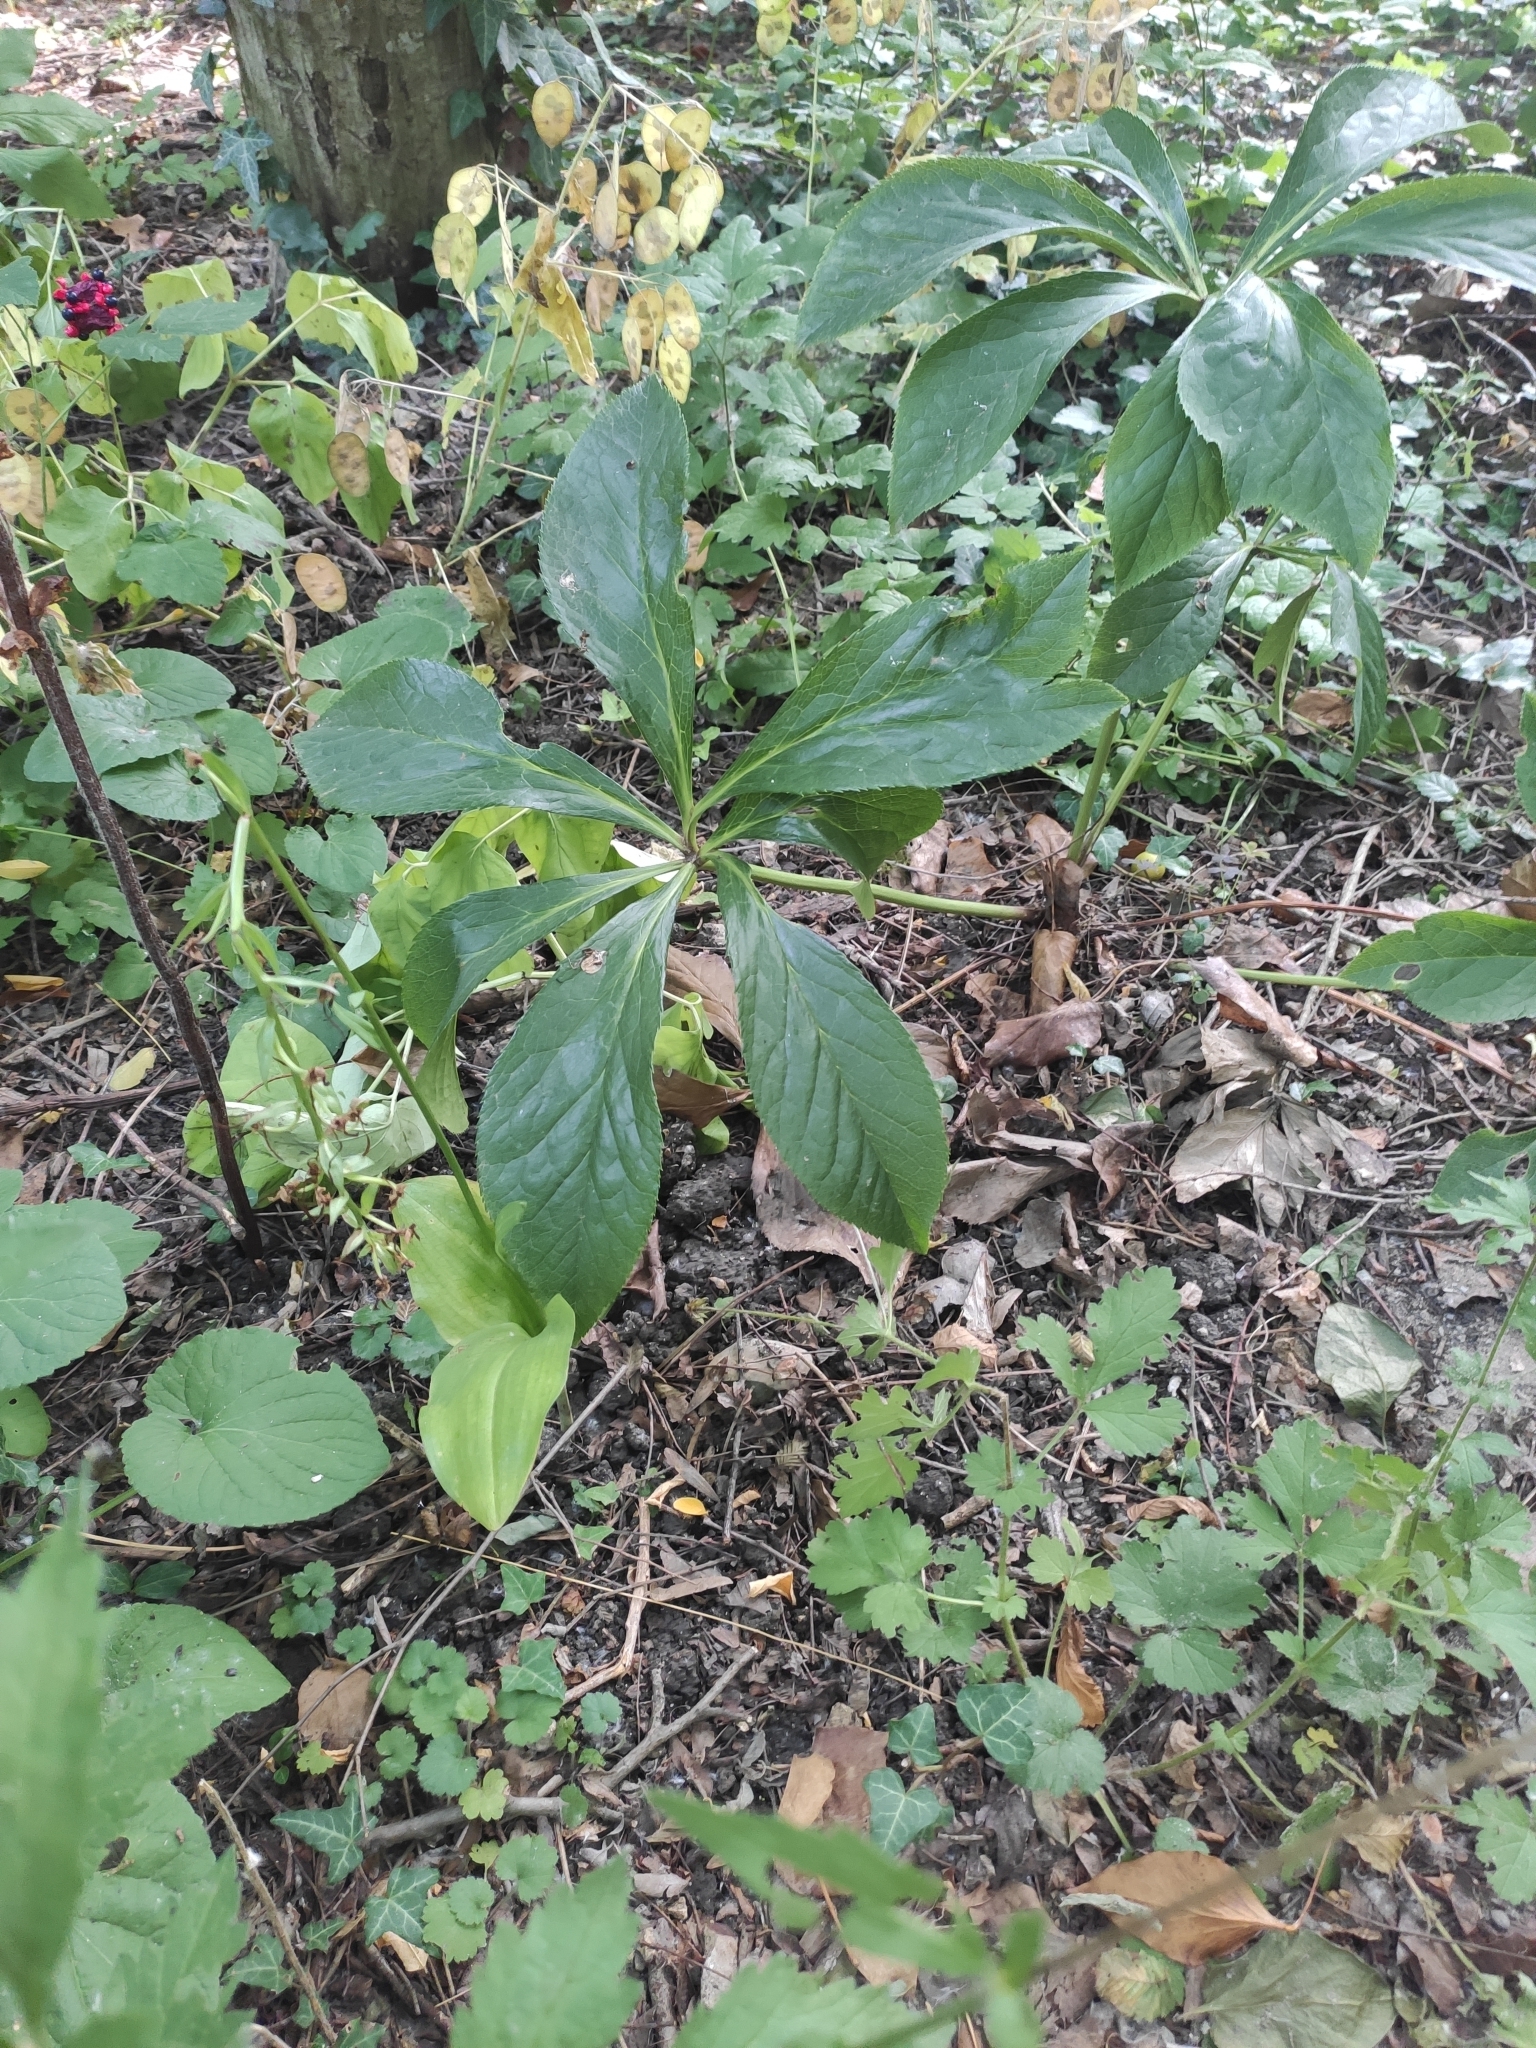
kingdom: Plantae
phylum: Tracheophyta
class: Magnoliopsida
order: Ranunculales
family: Ranunculaceae
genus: Helleborus
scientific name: Helleborus orientalis
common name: Lenten-rose
